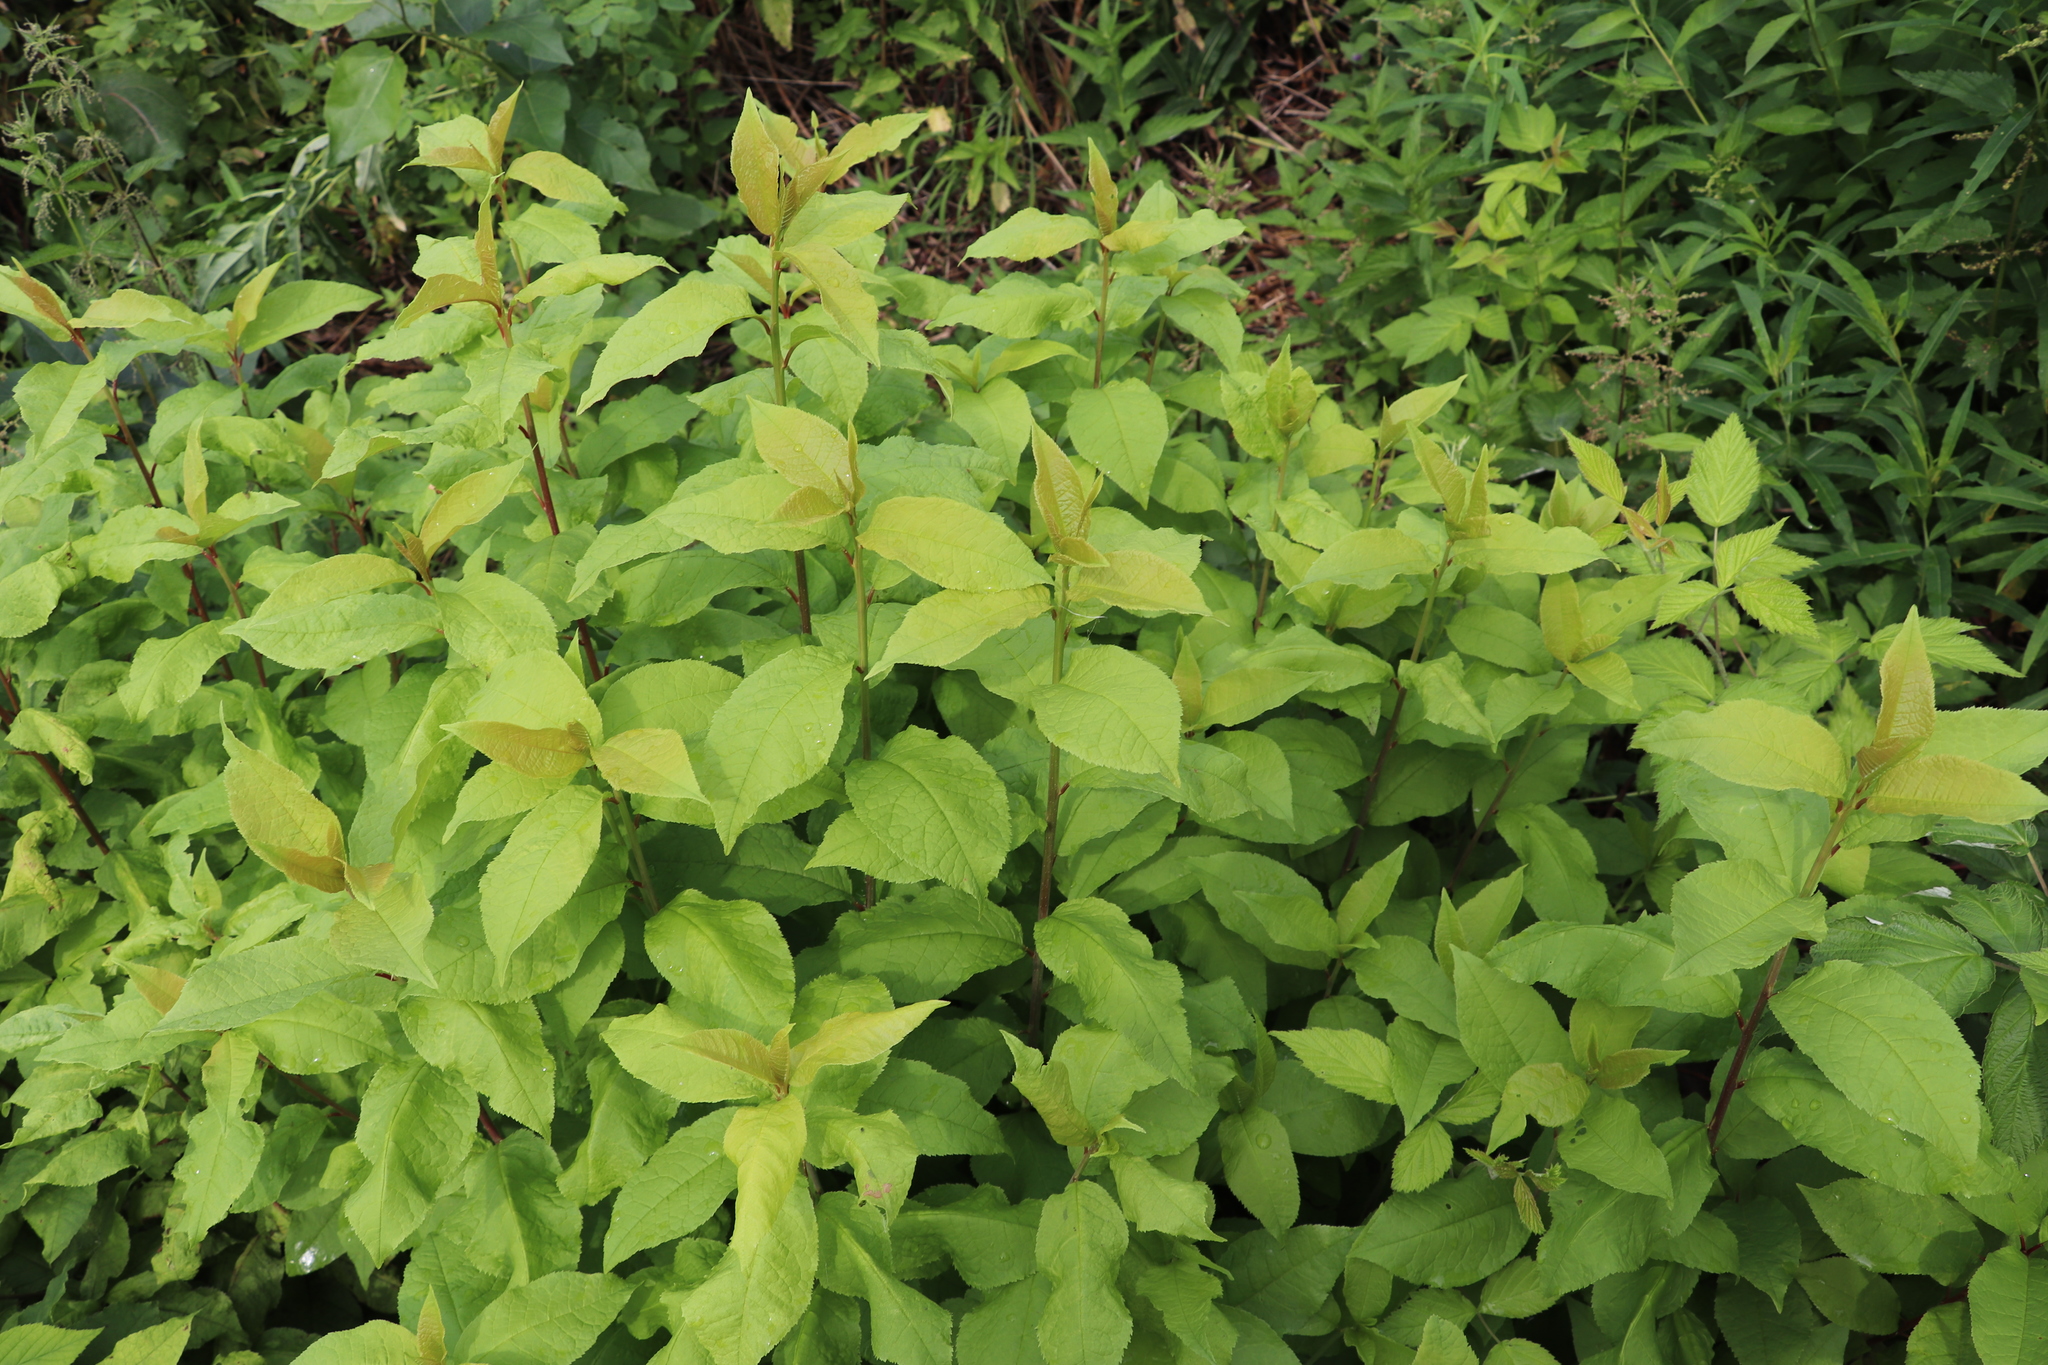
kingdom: Plantae
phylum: Tracheophyta
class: Magnoliopsida
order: Rosales
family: Rosaceae
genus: Prunus
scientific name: Prunus padus
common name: Bird cherry
